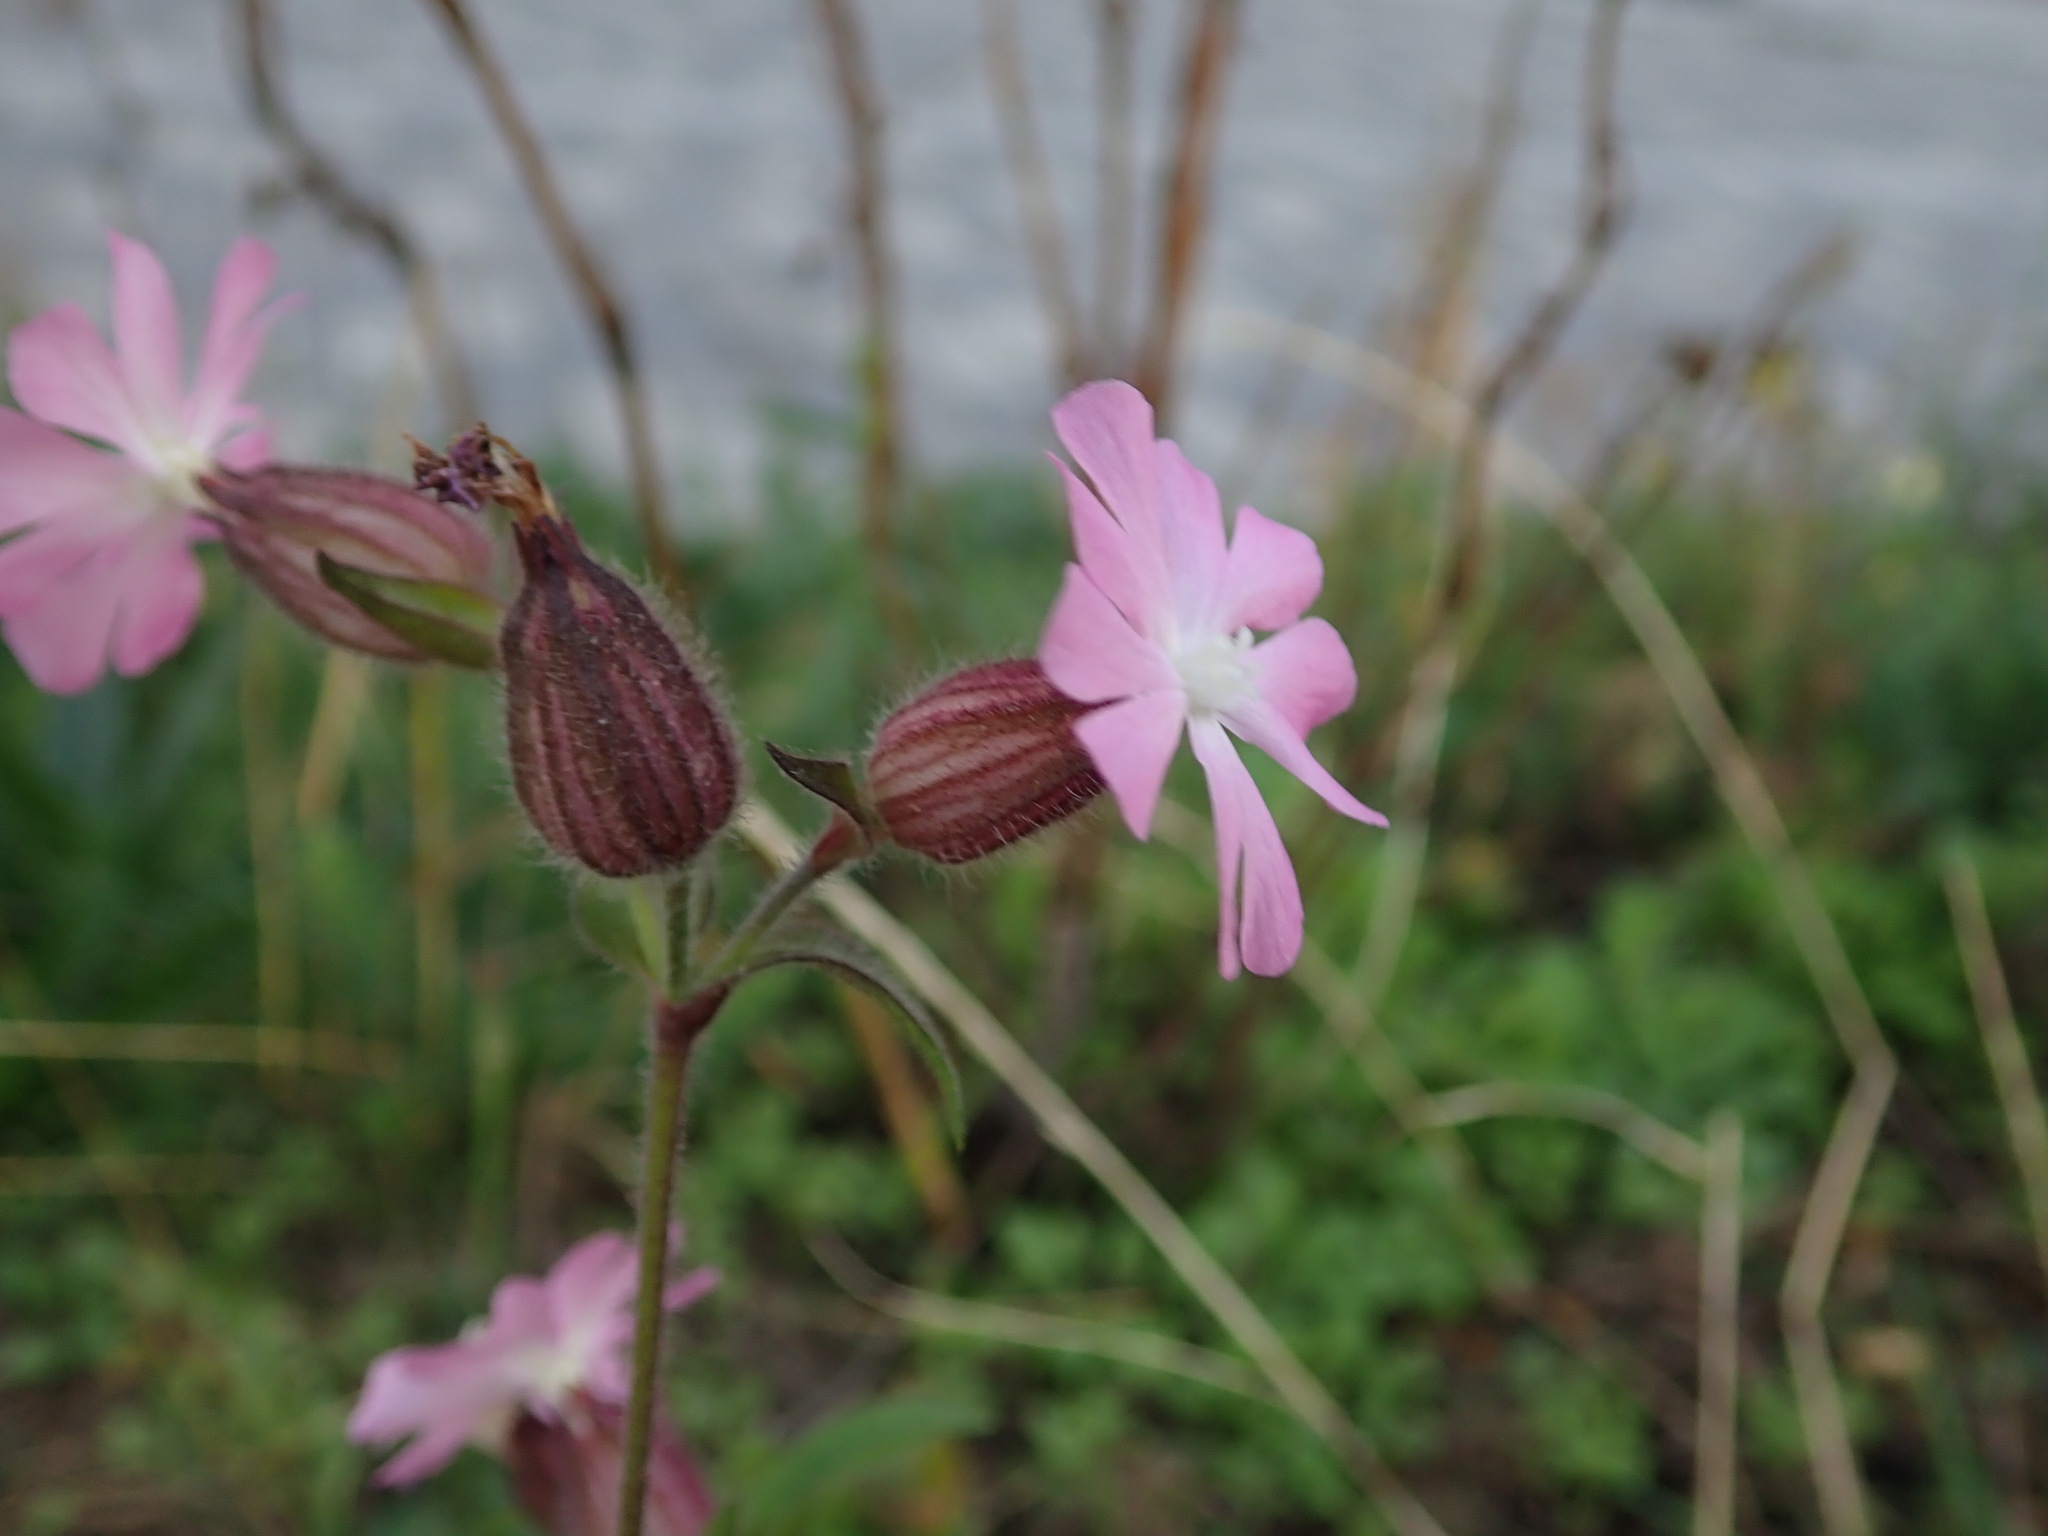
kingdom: Plantae
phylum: Tracheophyta
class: Magnoliopsida
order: Caryophyllales
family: Caryophyllaceae
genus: Silene
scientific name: Silene dioica
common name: Red campion
